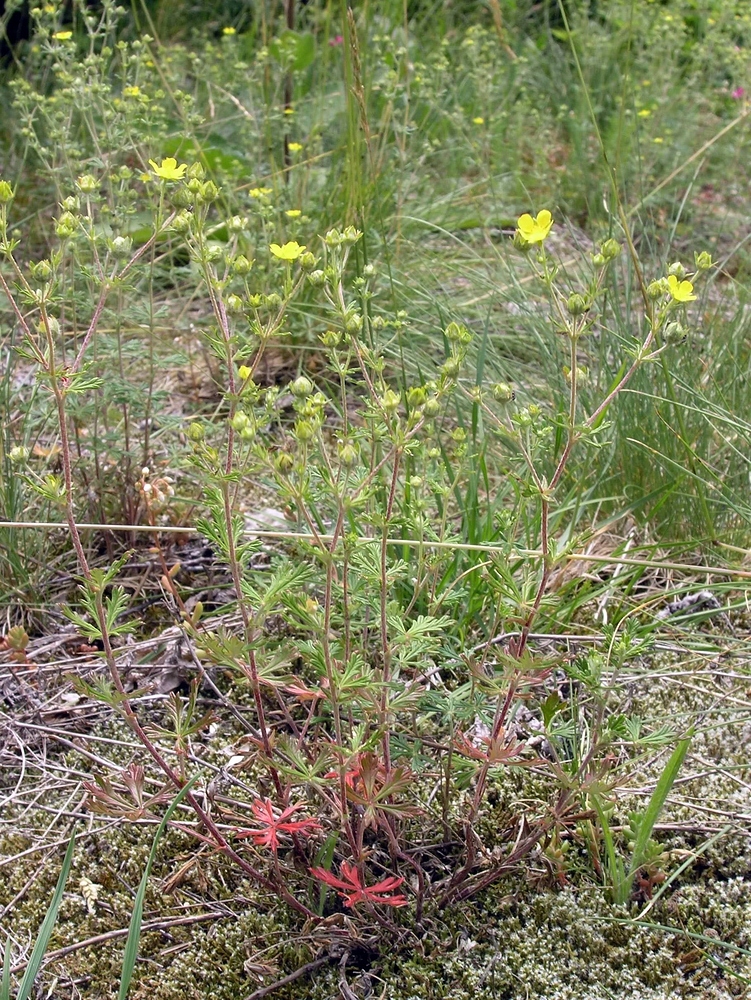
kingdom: Plantae
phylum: Tracheophyta
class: Magnoliopsida
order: Rosales
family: Rosaceae
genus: Potentilla
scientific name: Potentilla argentea
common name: Hoary cinquefoil
